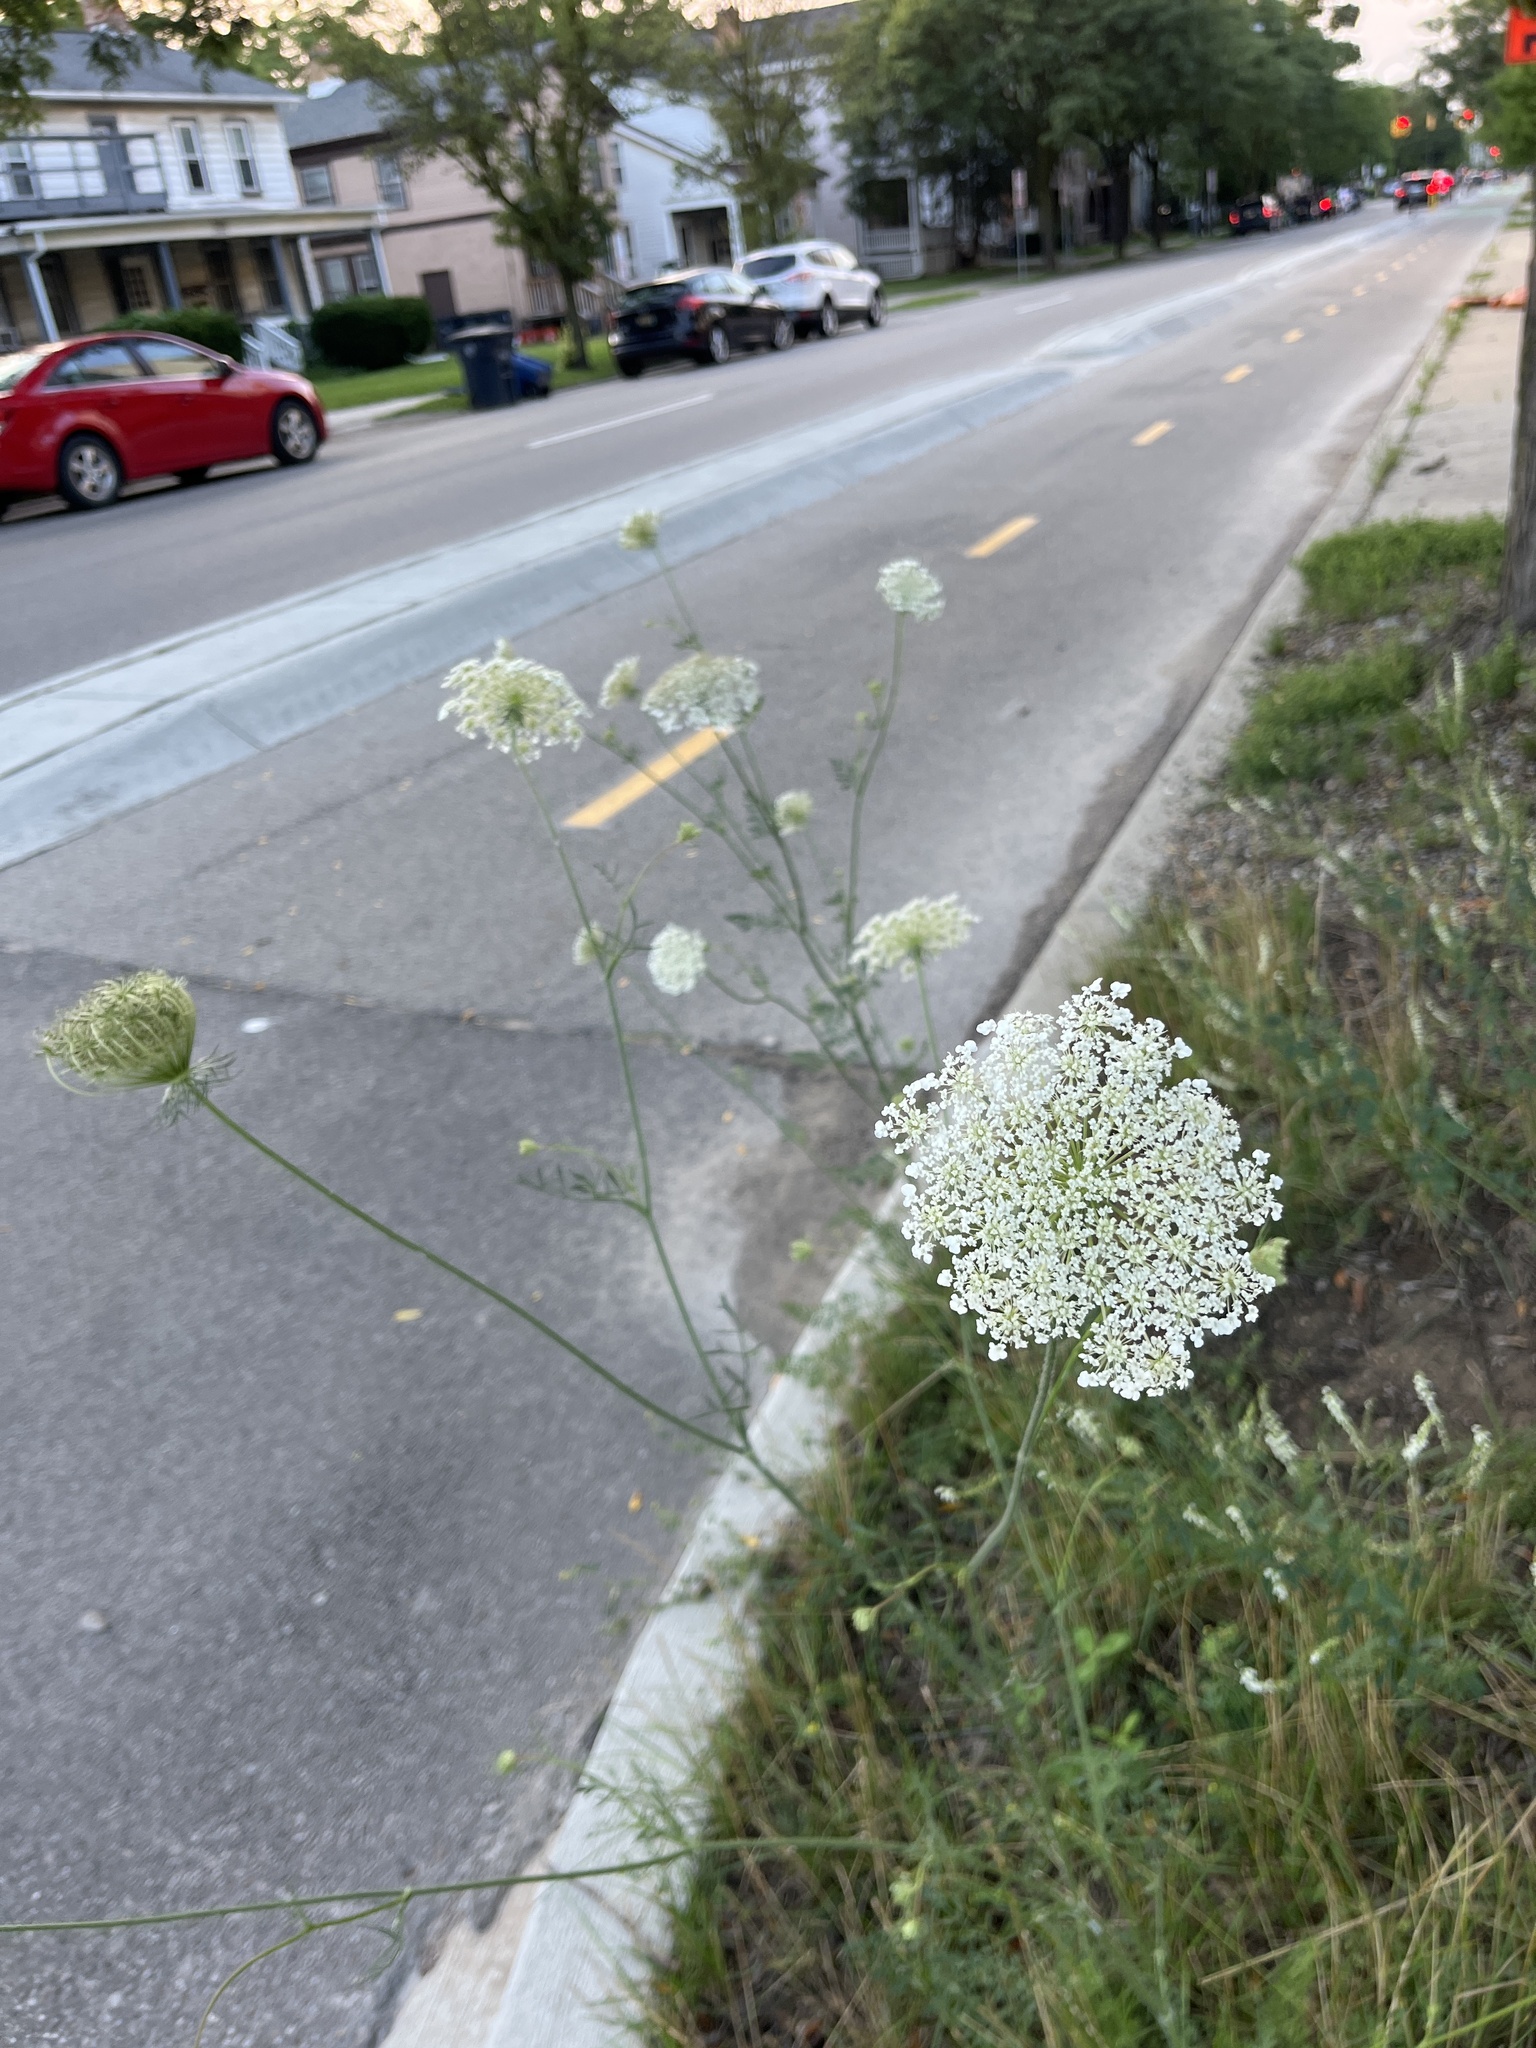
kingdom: Plantae
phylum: Tracheophyta
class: Magnoliopsida
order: Apiales
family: Apiaceae
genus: Daucus
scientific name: Daucus carota
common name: Wild carrot
